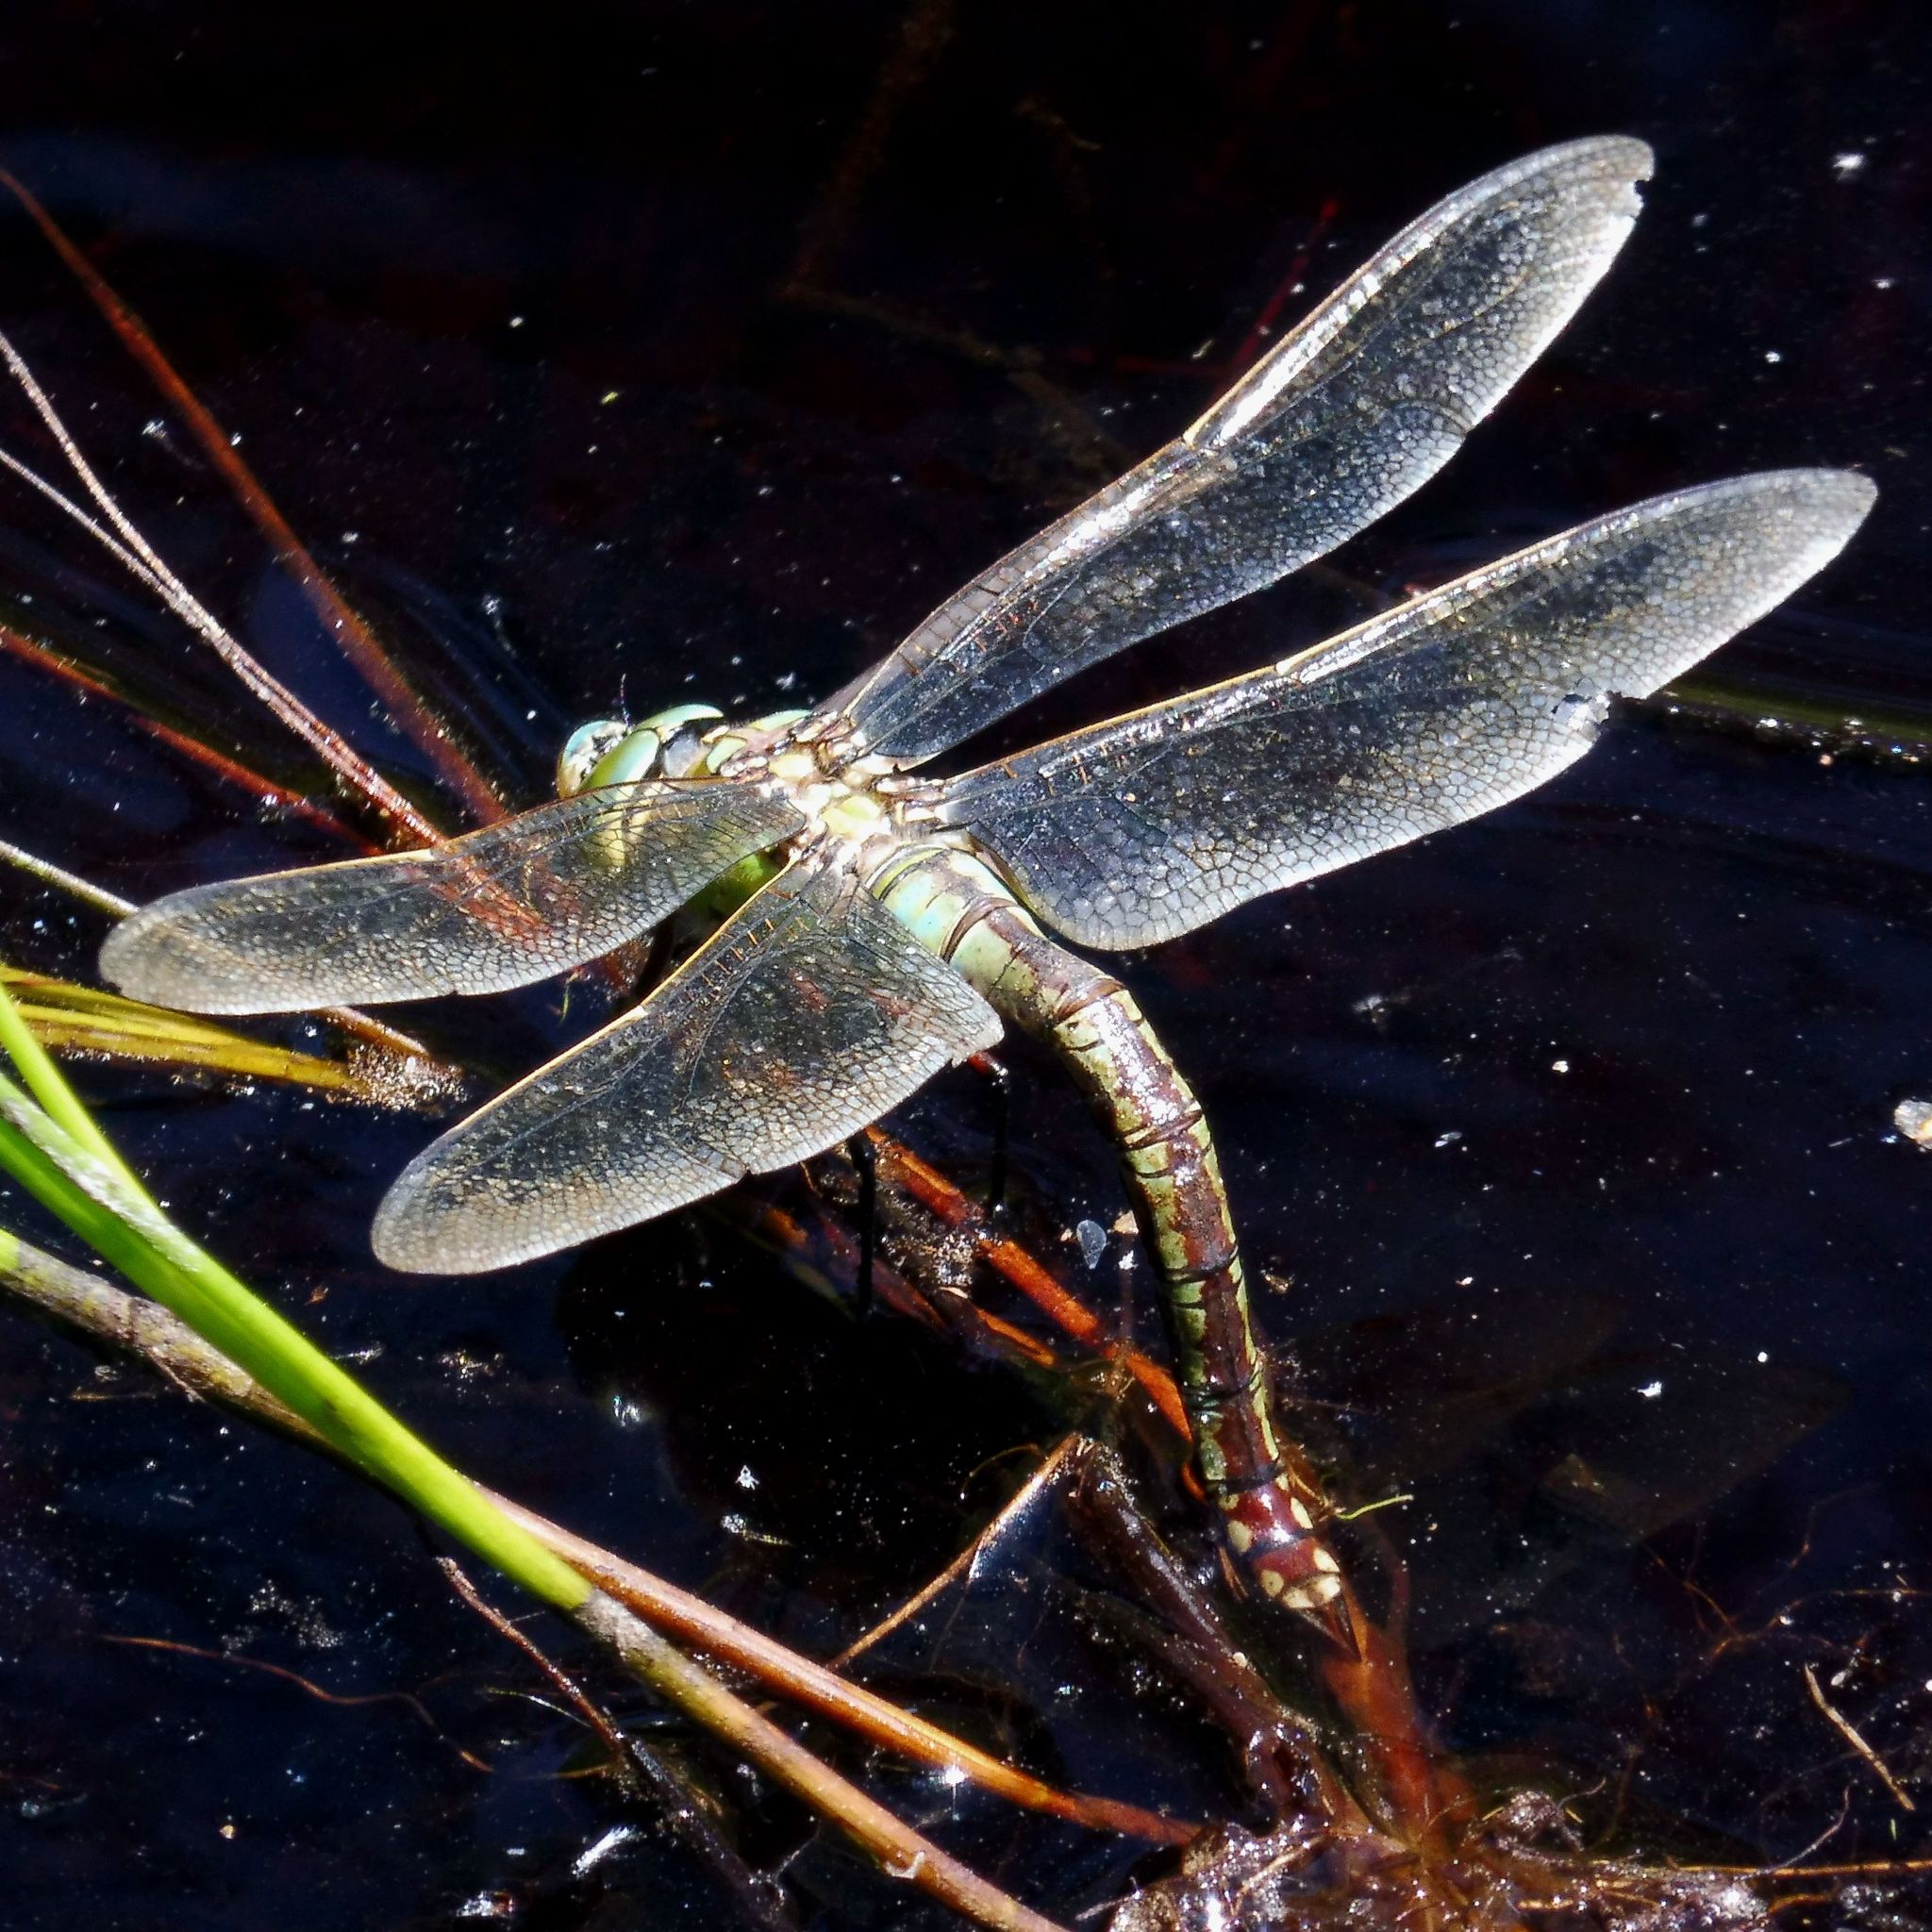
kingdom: Animalia
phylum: Arthropoda
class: Insecta
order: Odonata
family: Aeshnidae
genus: Anax
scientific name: Anax imperator
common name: Emperor dragonfly
